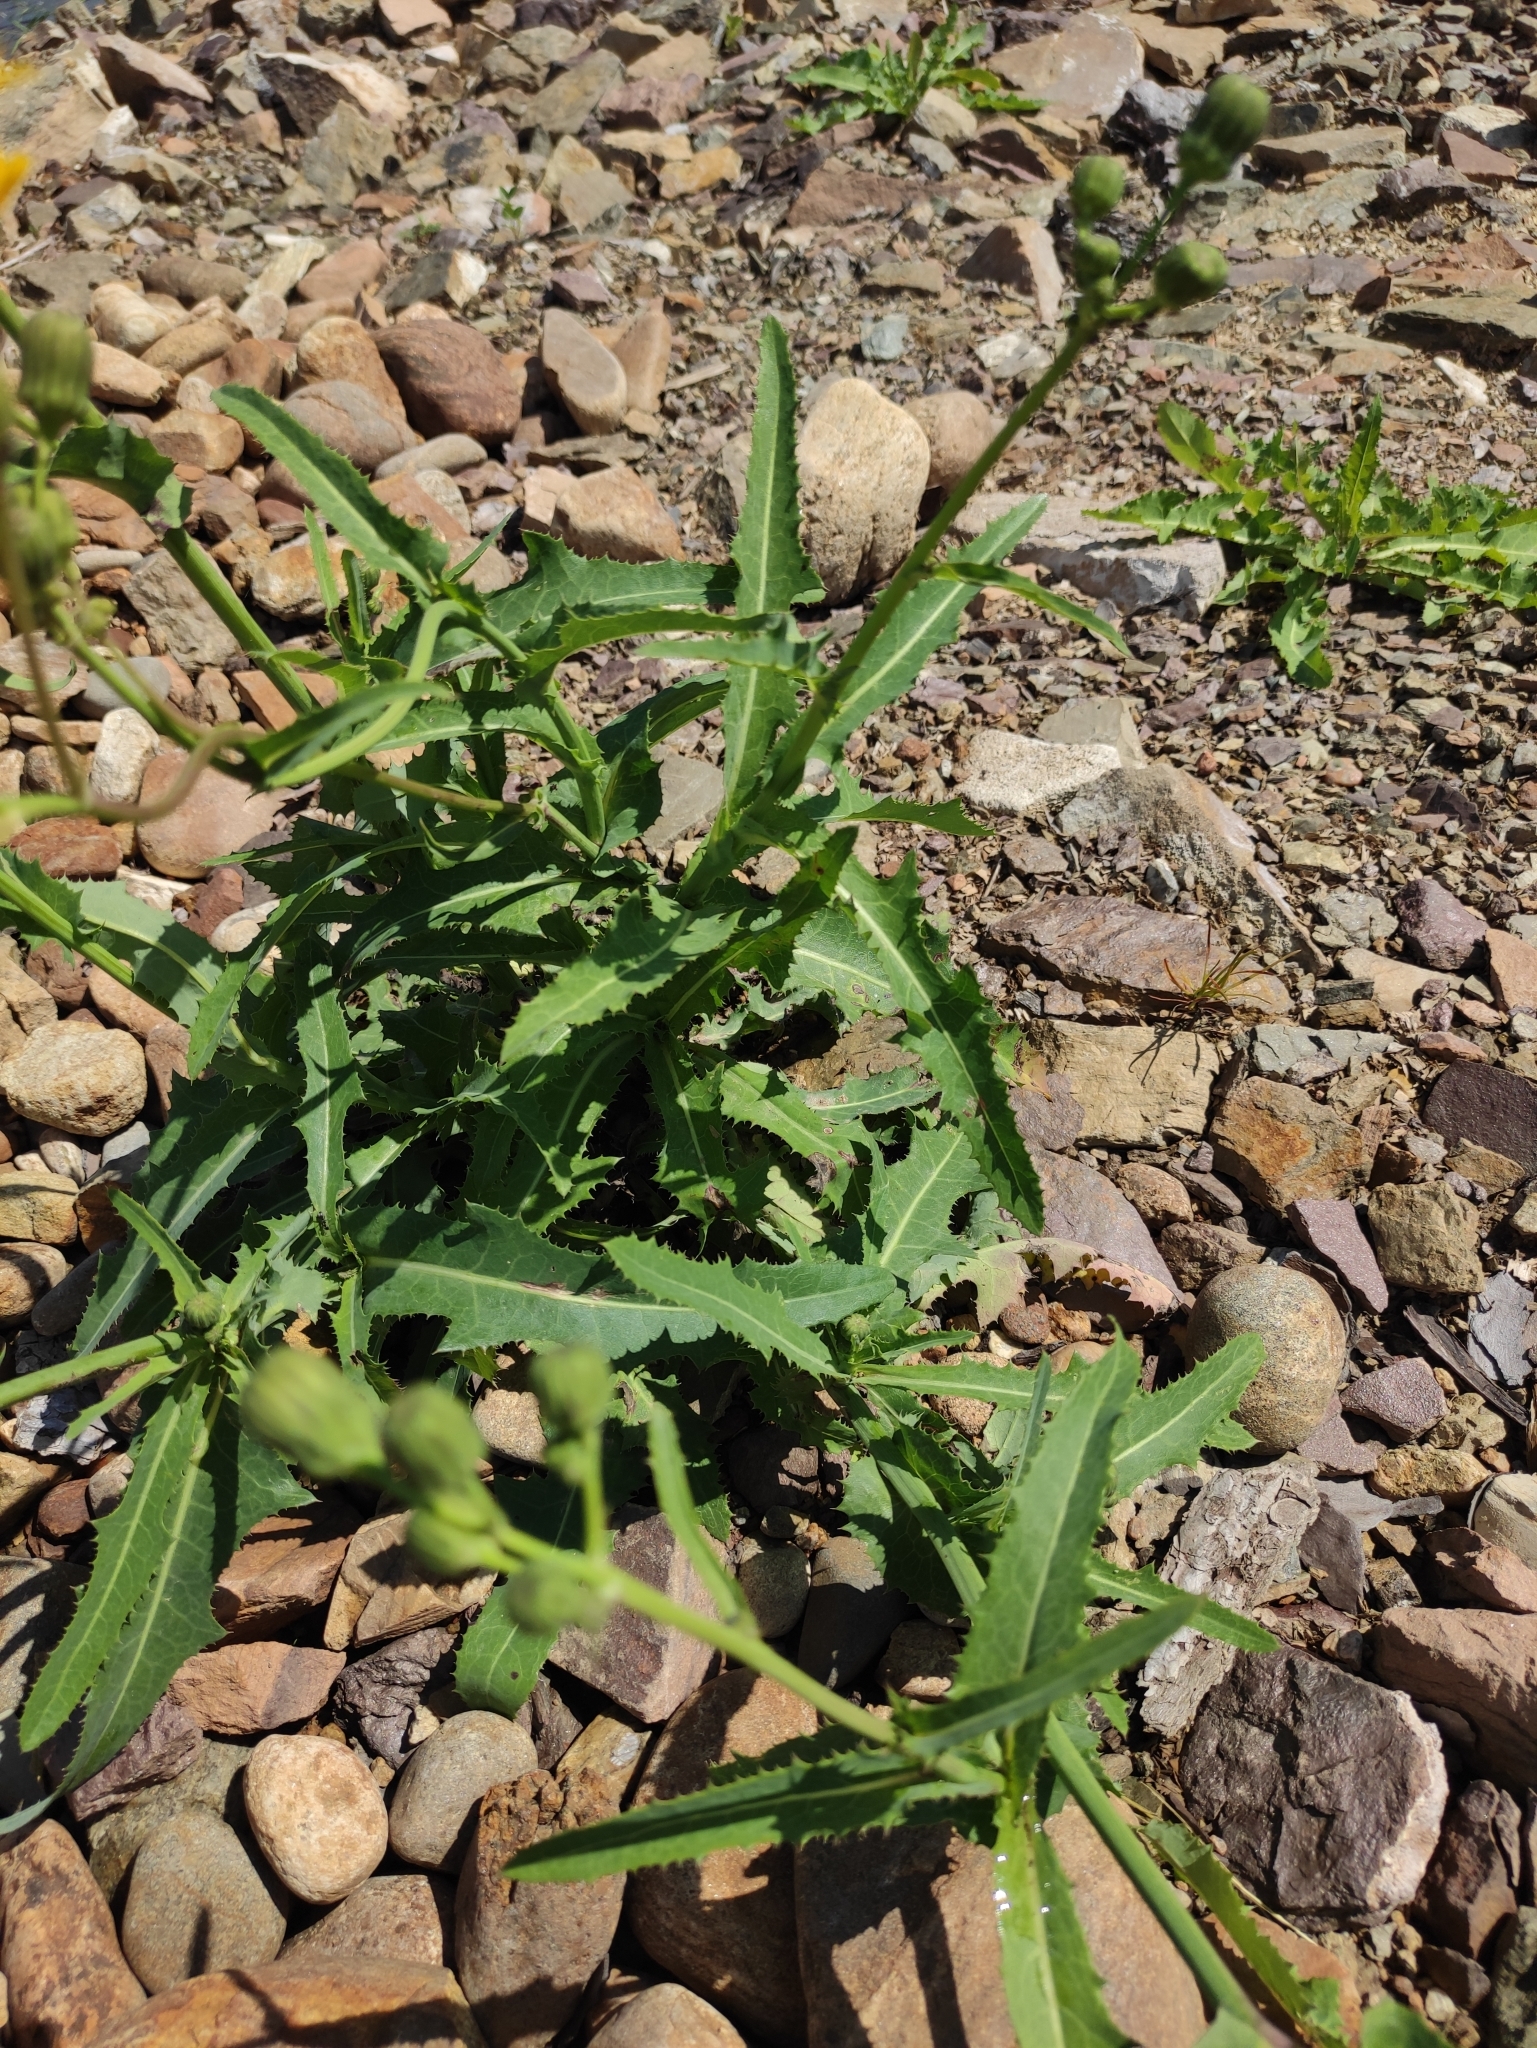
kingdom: Plantae
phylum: Tracheophyta
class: Magnoliopsida
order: Asterales
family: Asteraceae
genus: Sonchus
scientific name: Sonchus arvensis
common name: Perennial sow-thistle
